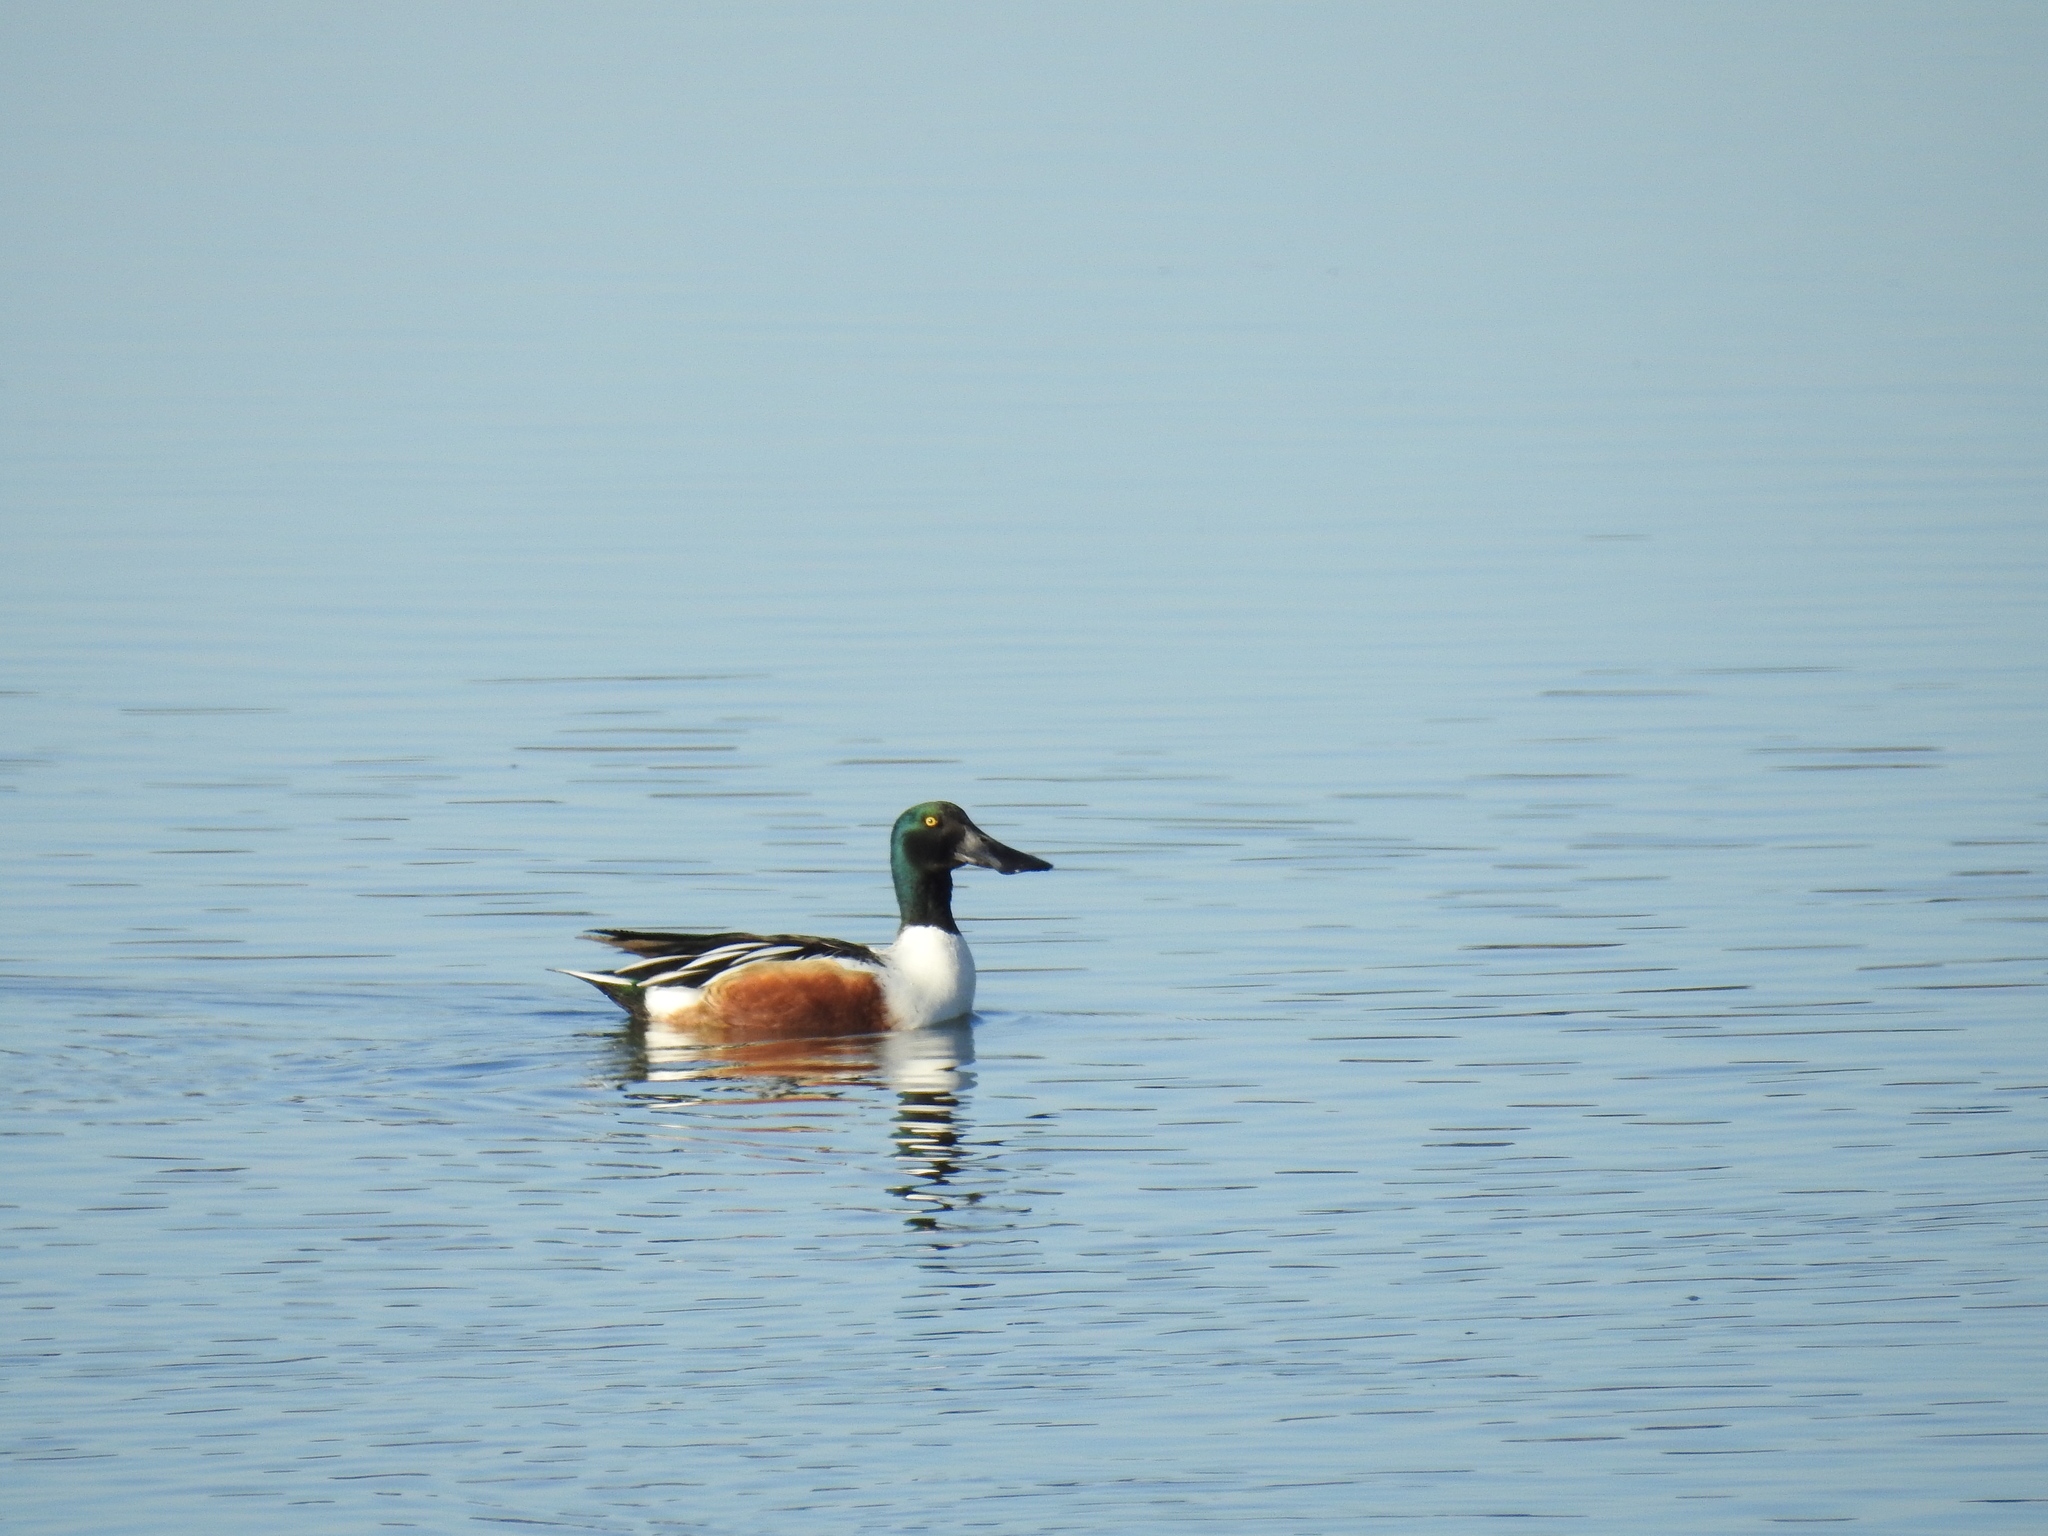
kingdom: Animalia
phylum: Chordata
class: Aves
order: Anseriformes
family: Anatidae
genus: Spatula
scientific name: Spatula clypeata
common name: Northern shoveler
